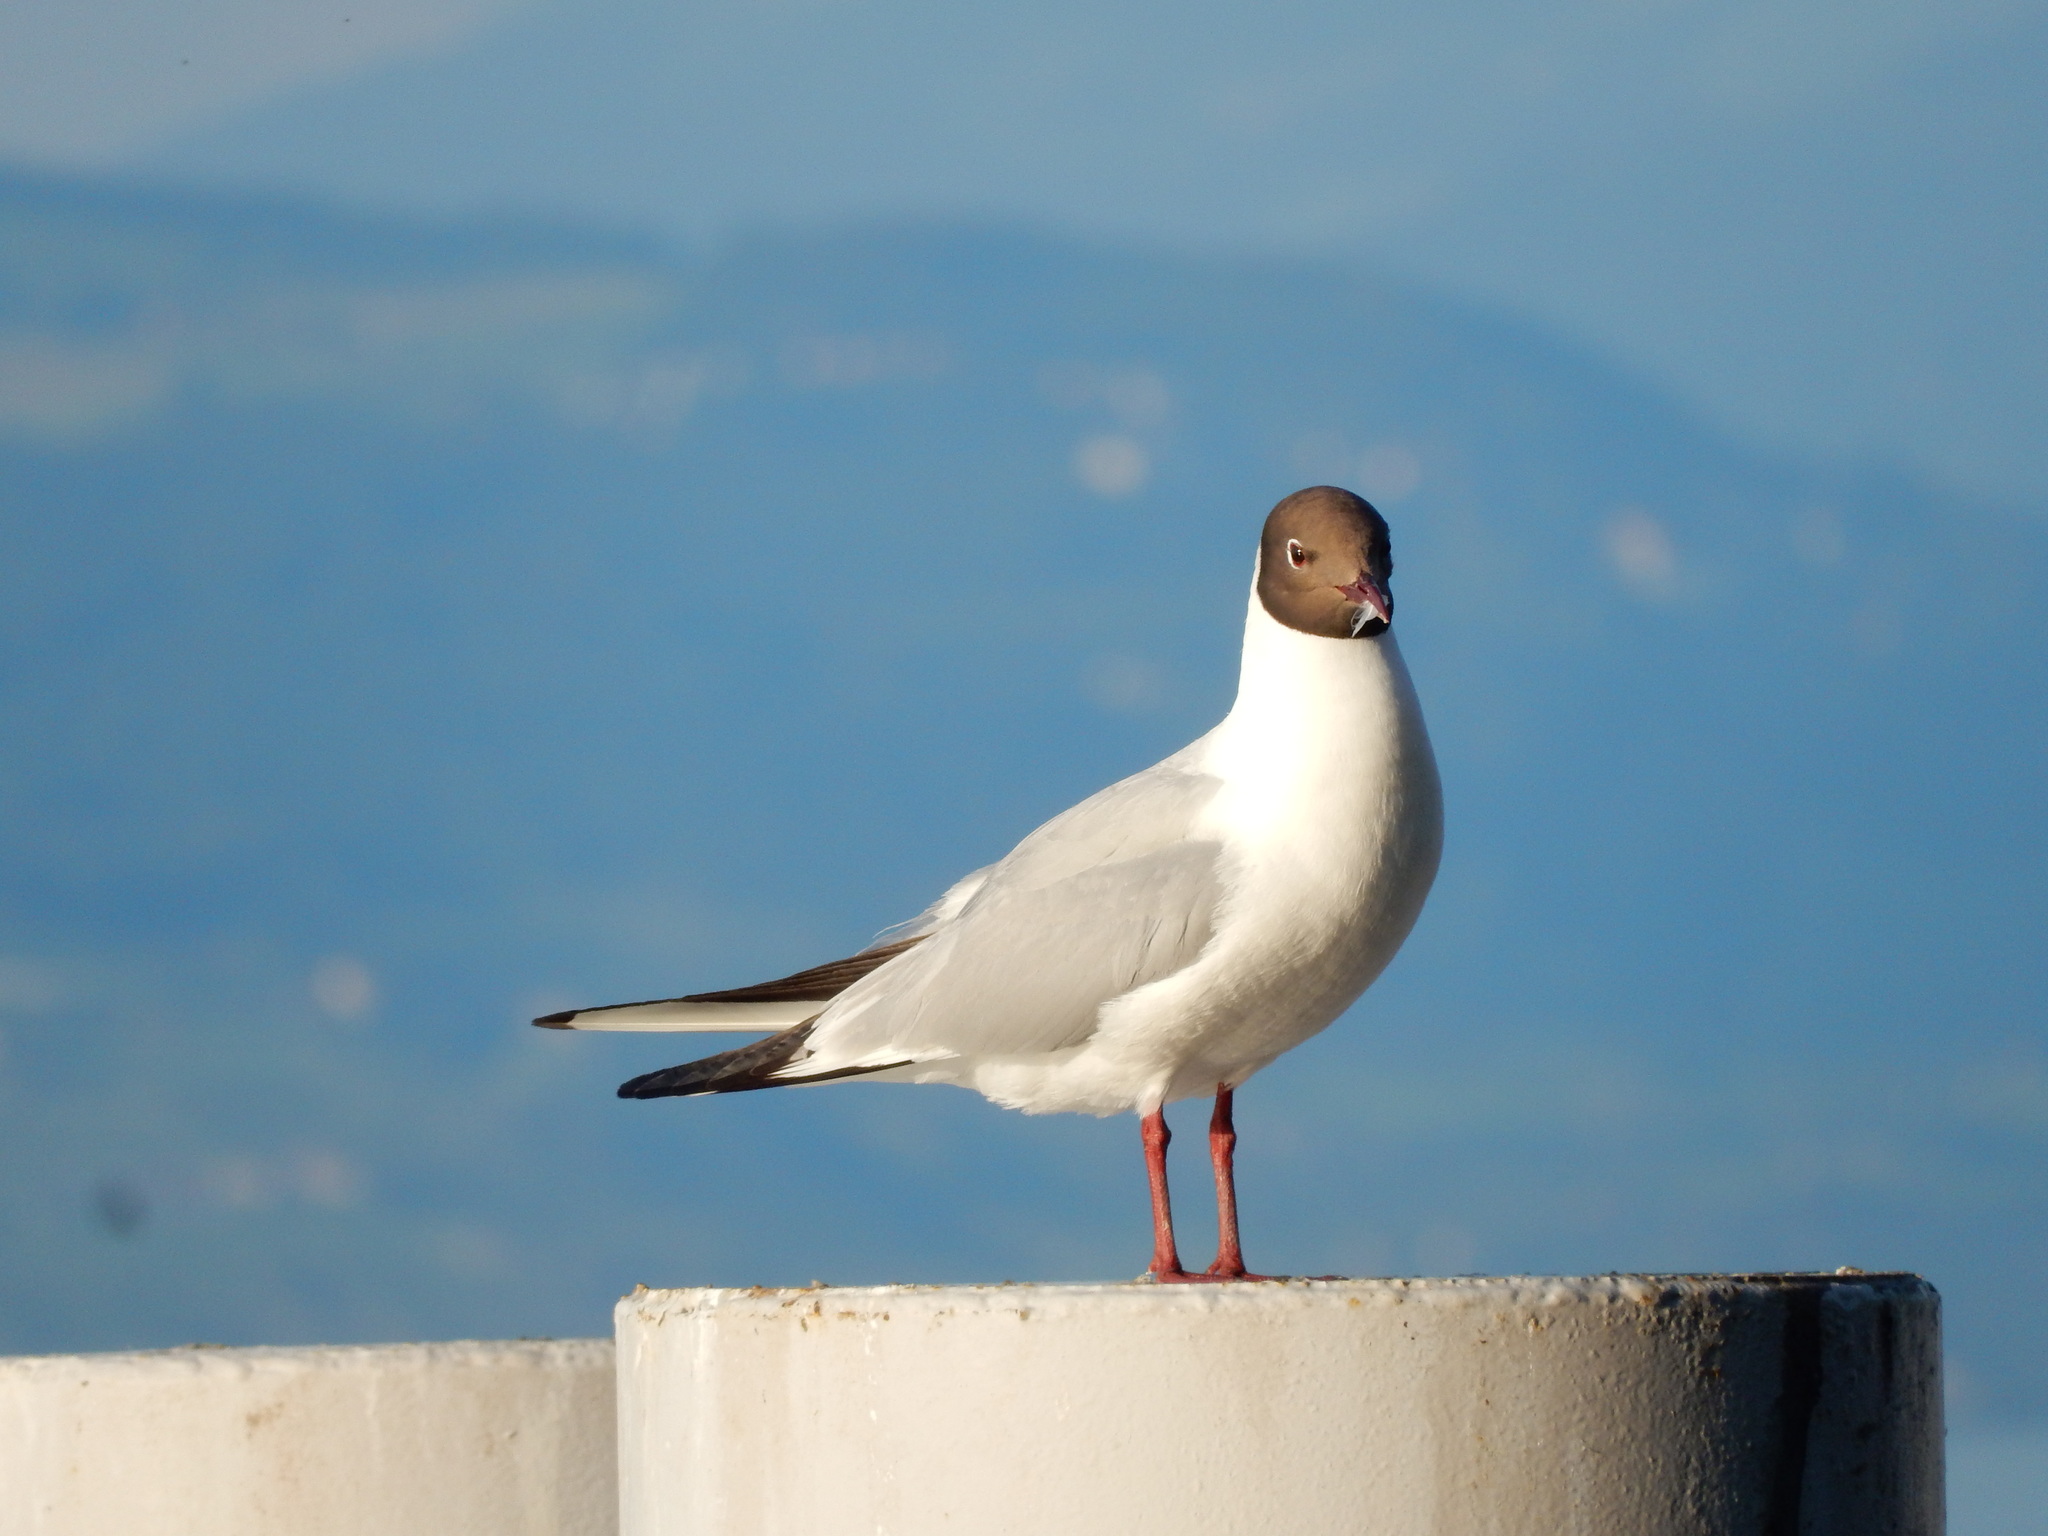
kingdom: Animalia
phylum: Chordata
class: Aves
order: Charadriiformes
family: Laridae
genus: Chroicocephalus
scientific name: Chroicocephalus ridibundus
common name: Black-headed gull
